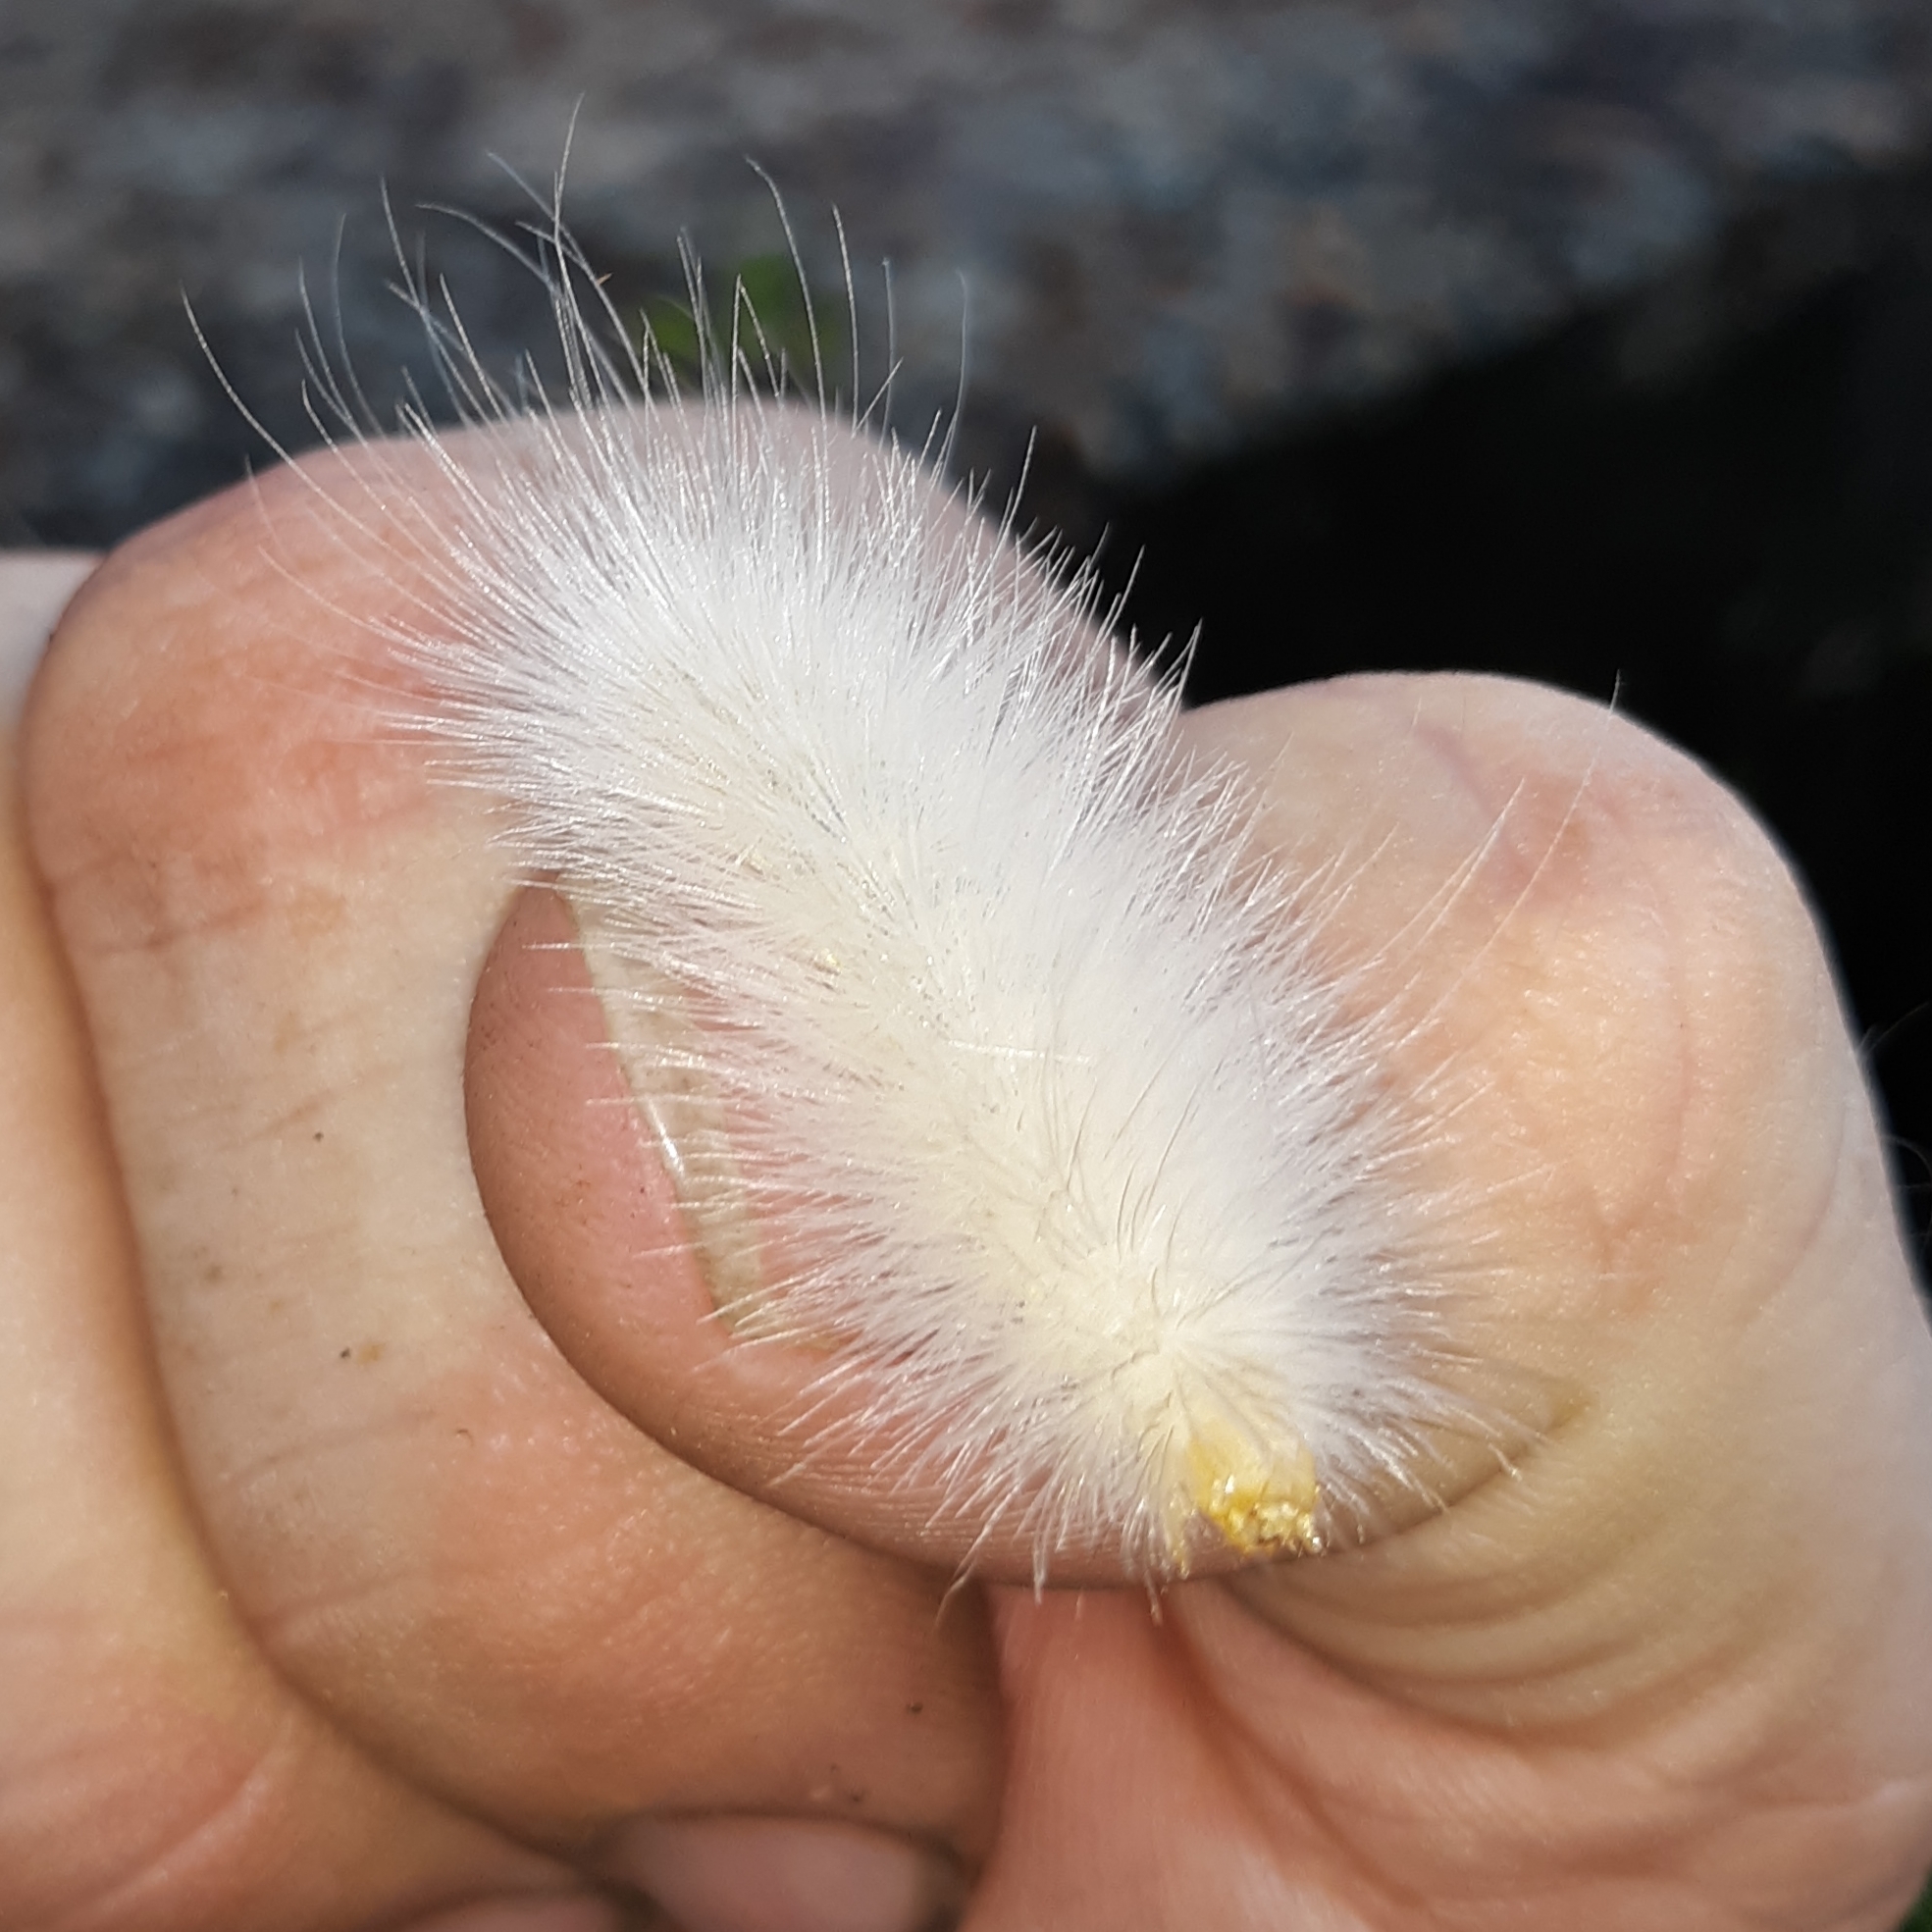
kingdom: Animalia
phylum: Arthropoda
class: Insecta
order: Lepidoptera
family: Erebidae
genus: Spilosoma
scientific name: Spilosoma virginica
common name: Virginia tiger moth
